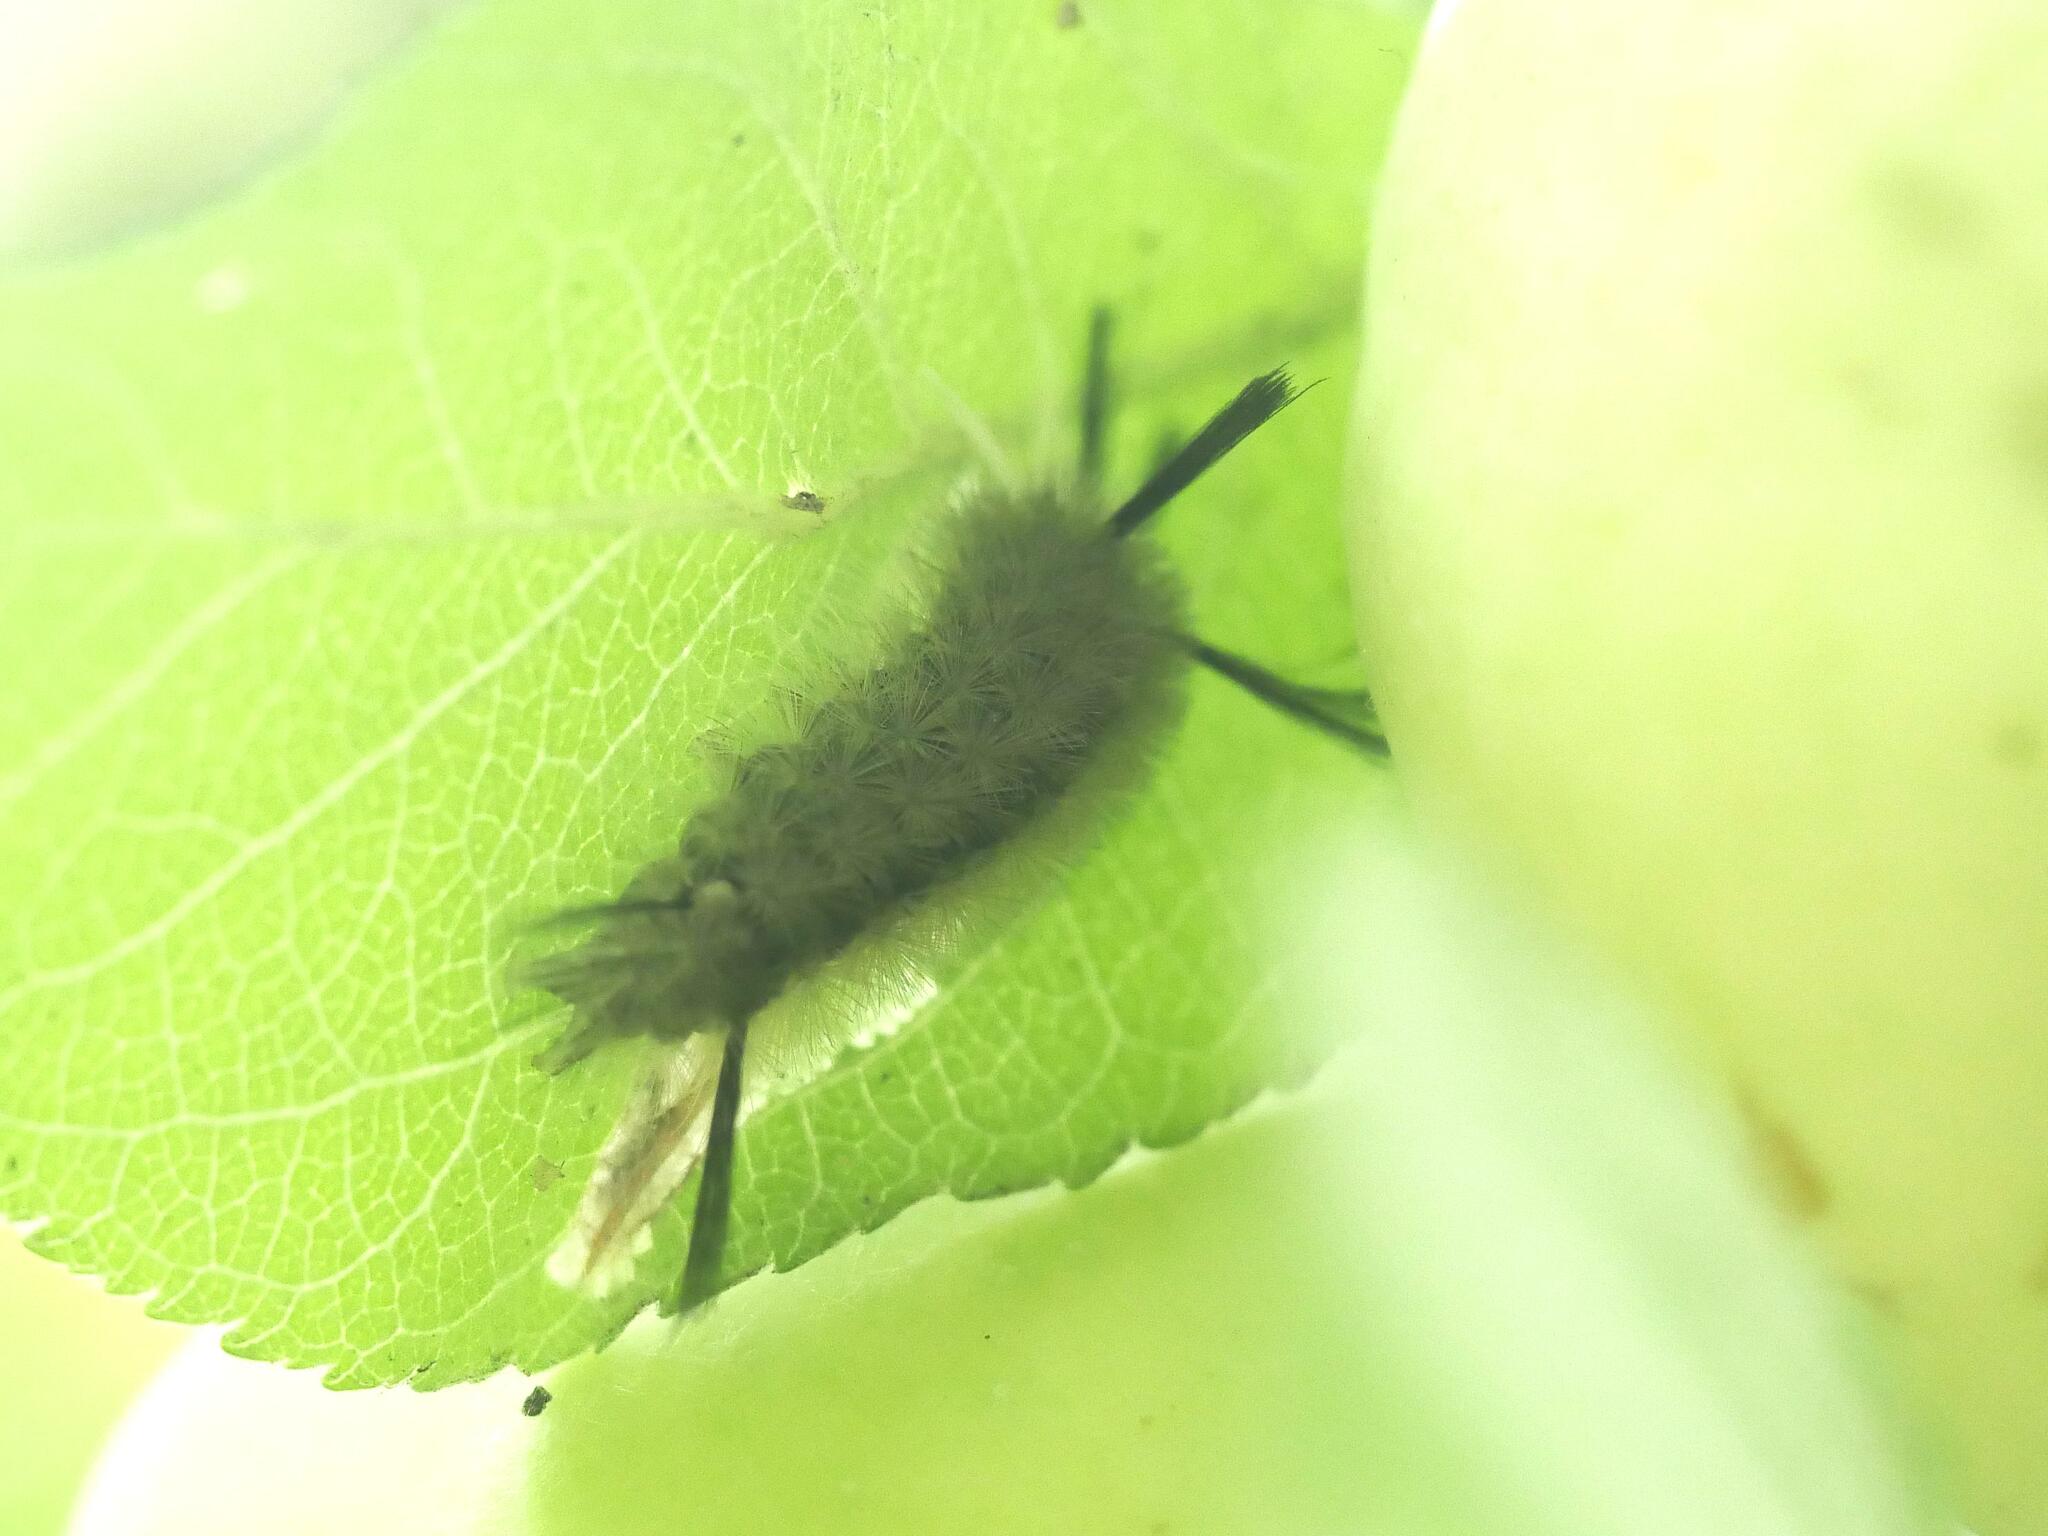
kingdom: Animalia
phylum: Arthropoda
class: Insecta
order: Lepidoptera
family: Erebidae
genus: Halysidota
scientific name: Halysidota tessellaris
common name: Banded tussock moth
